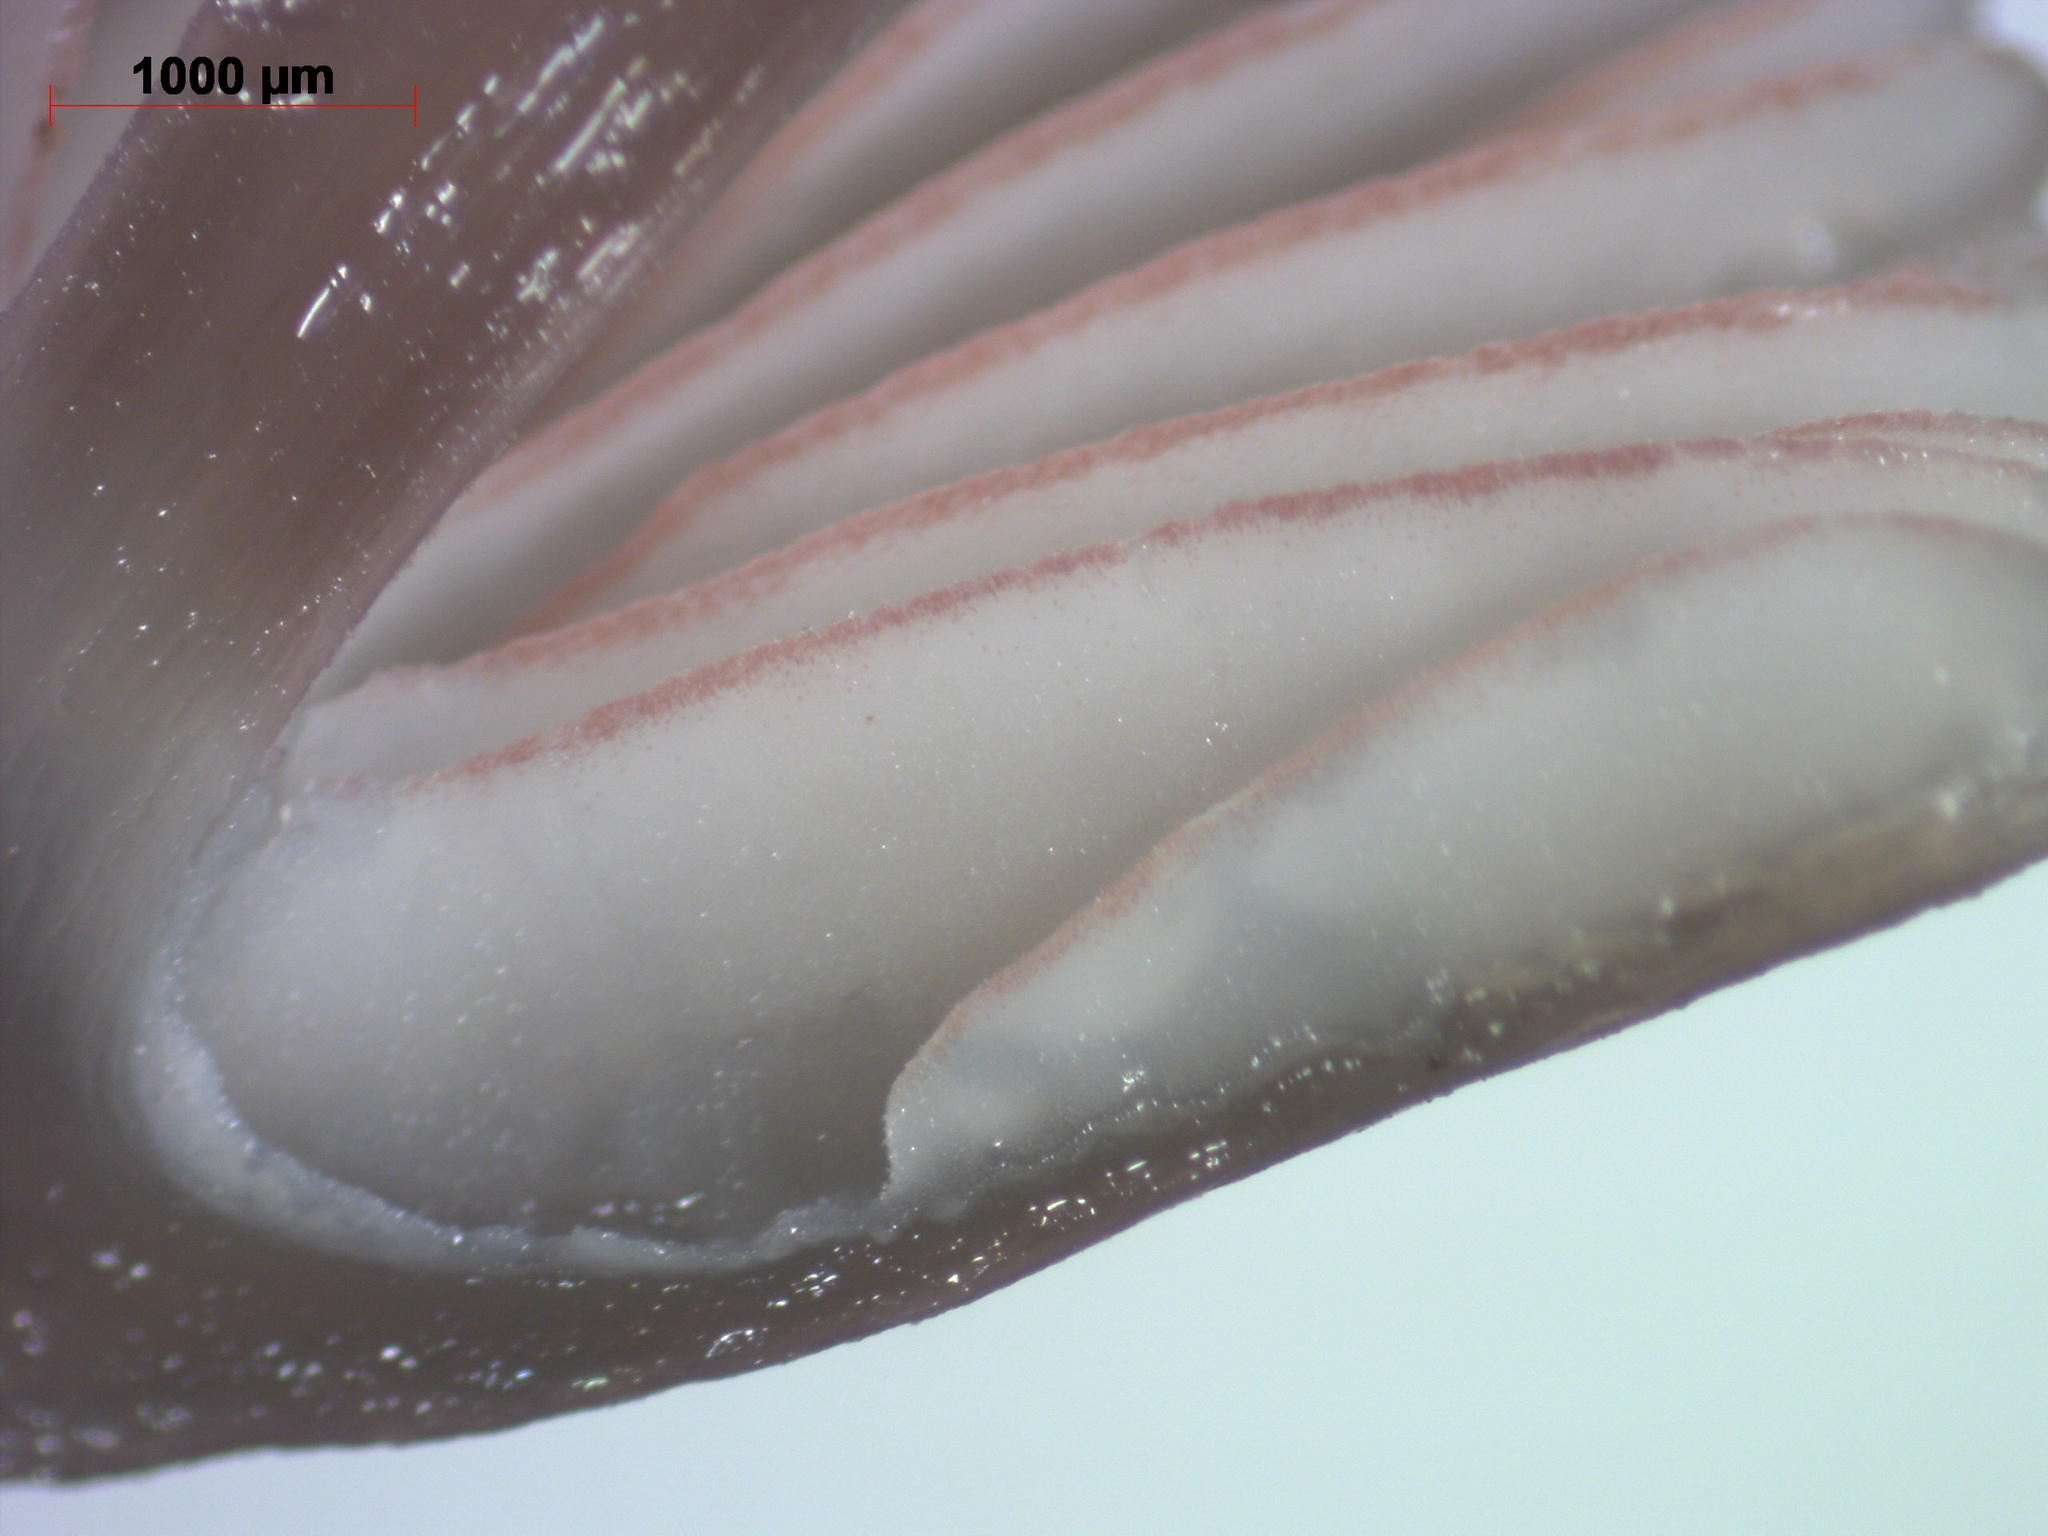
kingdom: Fungi
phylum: Basidiomycota
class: Agaricomycetes
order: Agaricales
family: Mycenaceae
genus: Mycena
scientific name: Mycena rubromarginata
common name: Red edge bonnet
